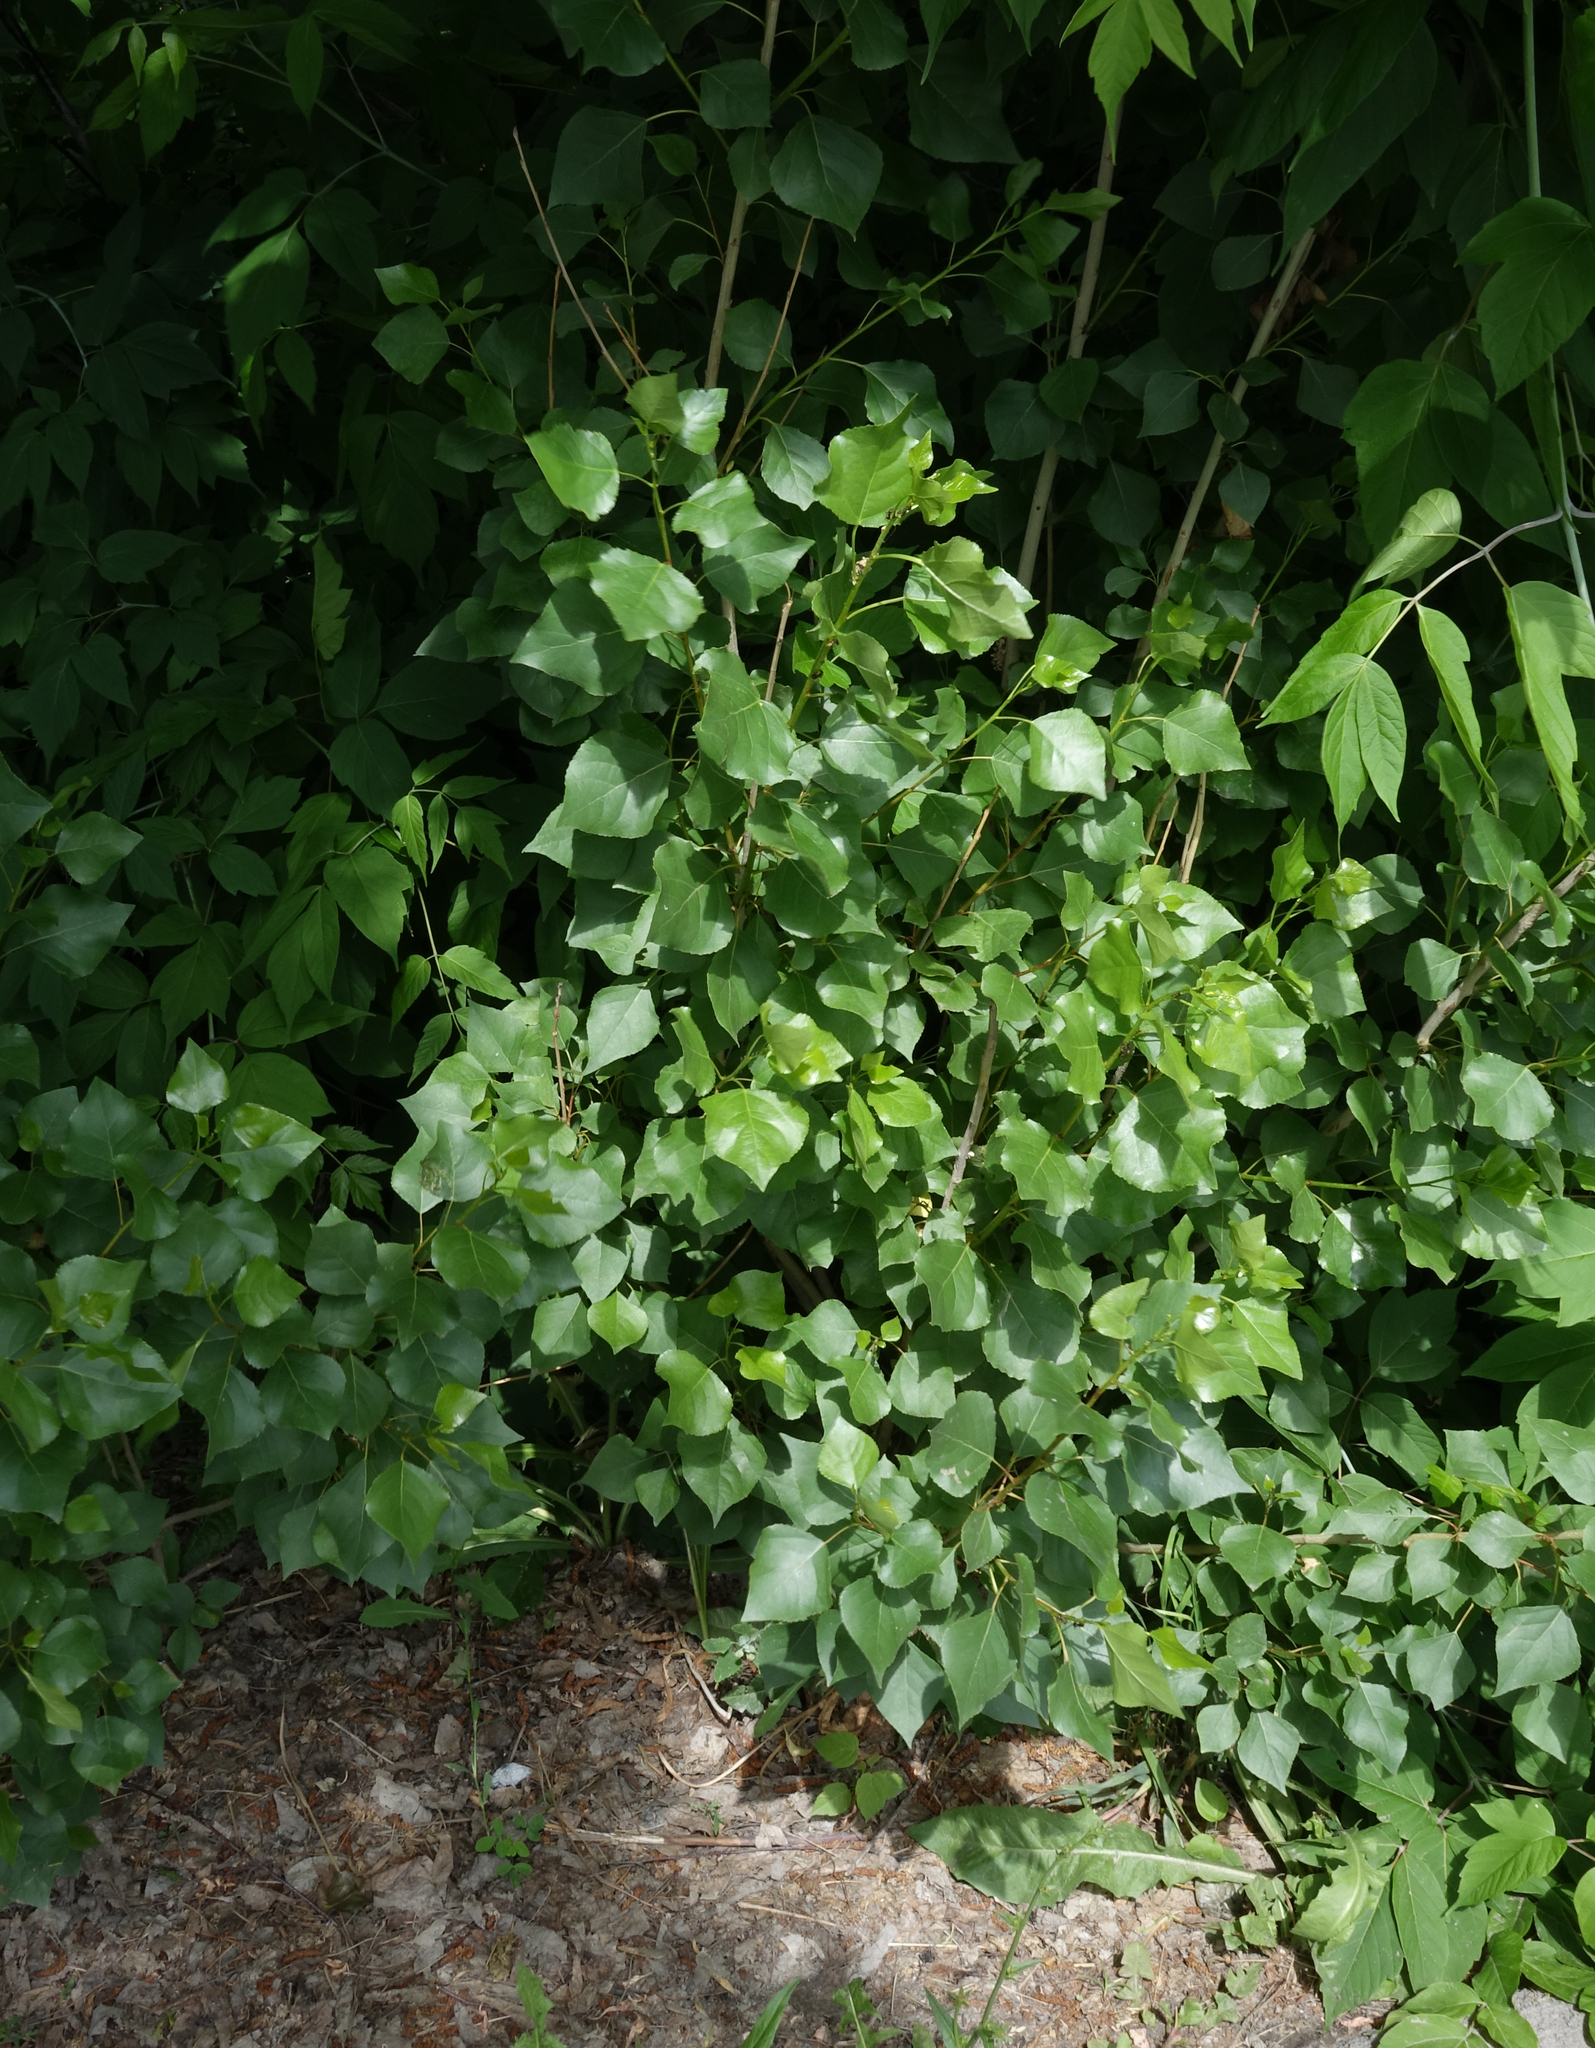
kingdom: Plantae
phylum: Tracheophyta
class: Magnoliopsida
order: Malpighiales
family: Salicaceae
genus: Populus
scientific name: Populus nigra
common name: Black poplar
